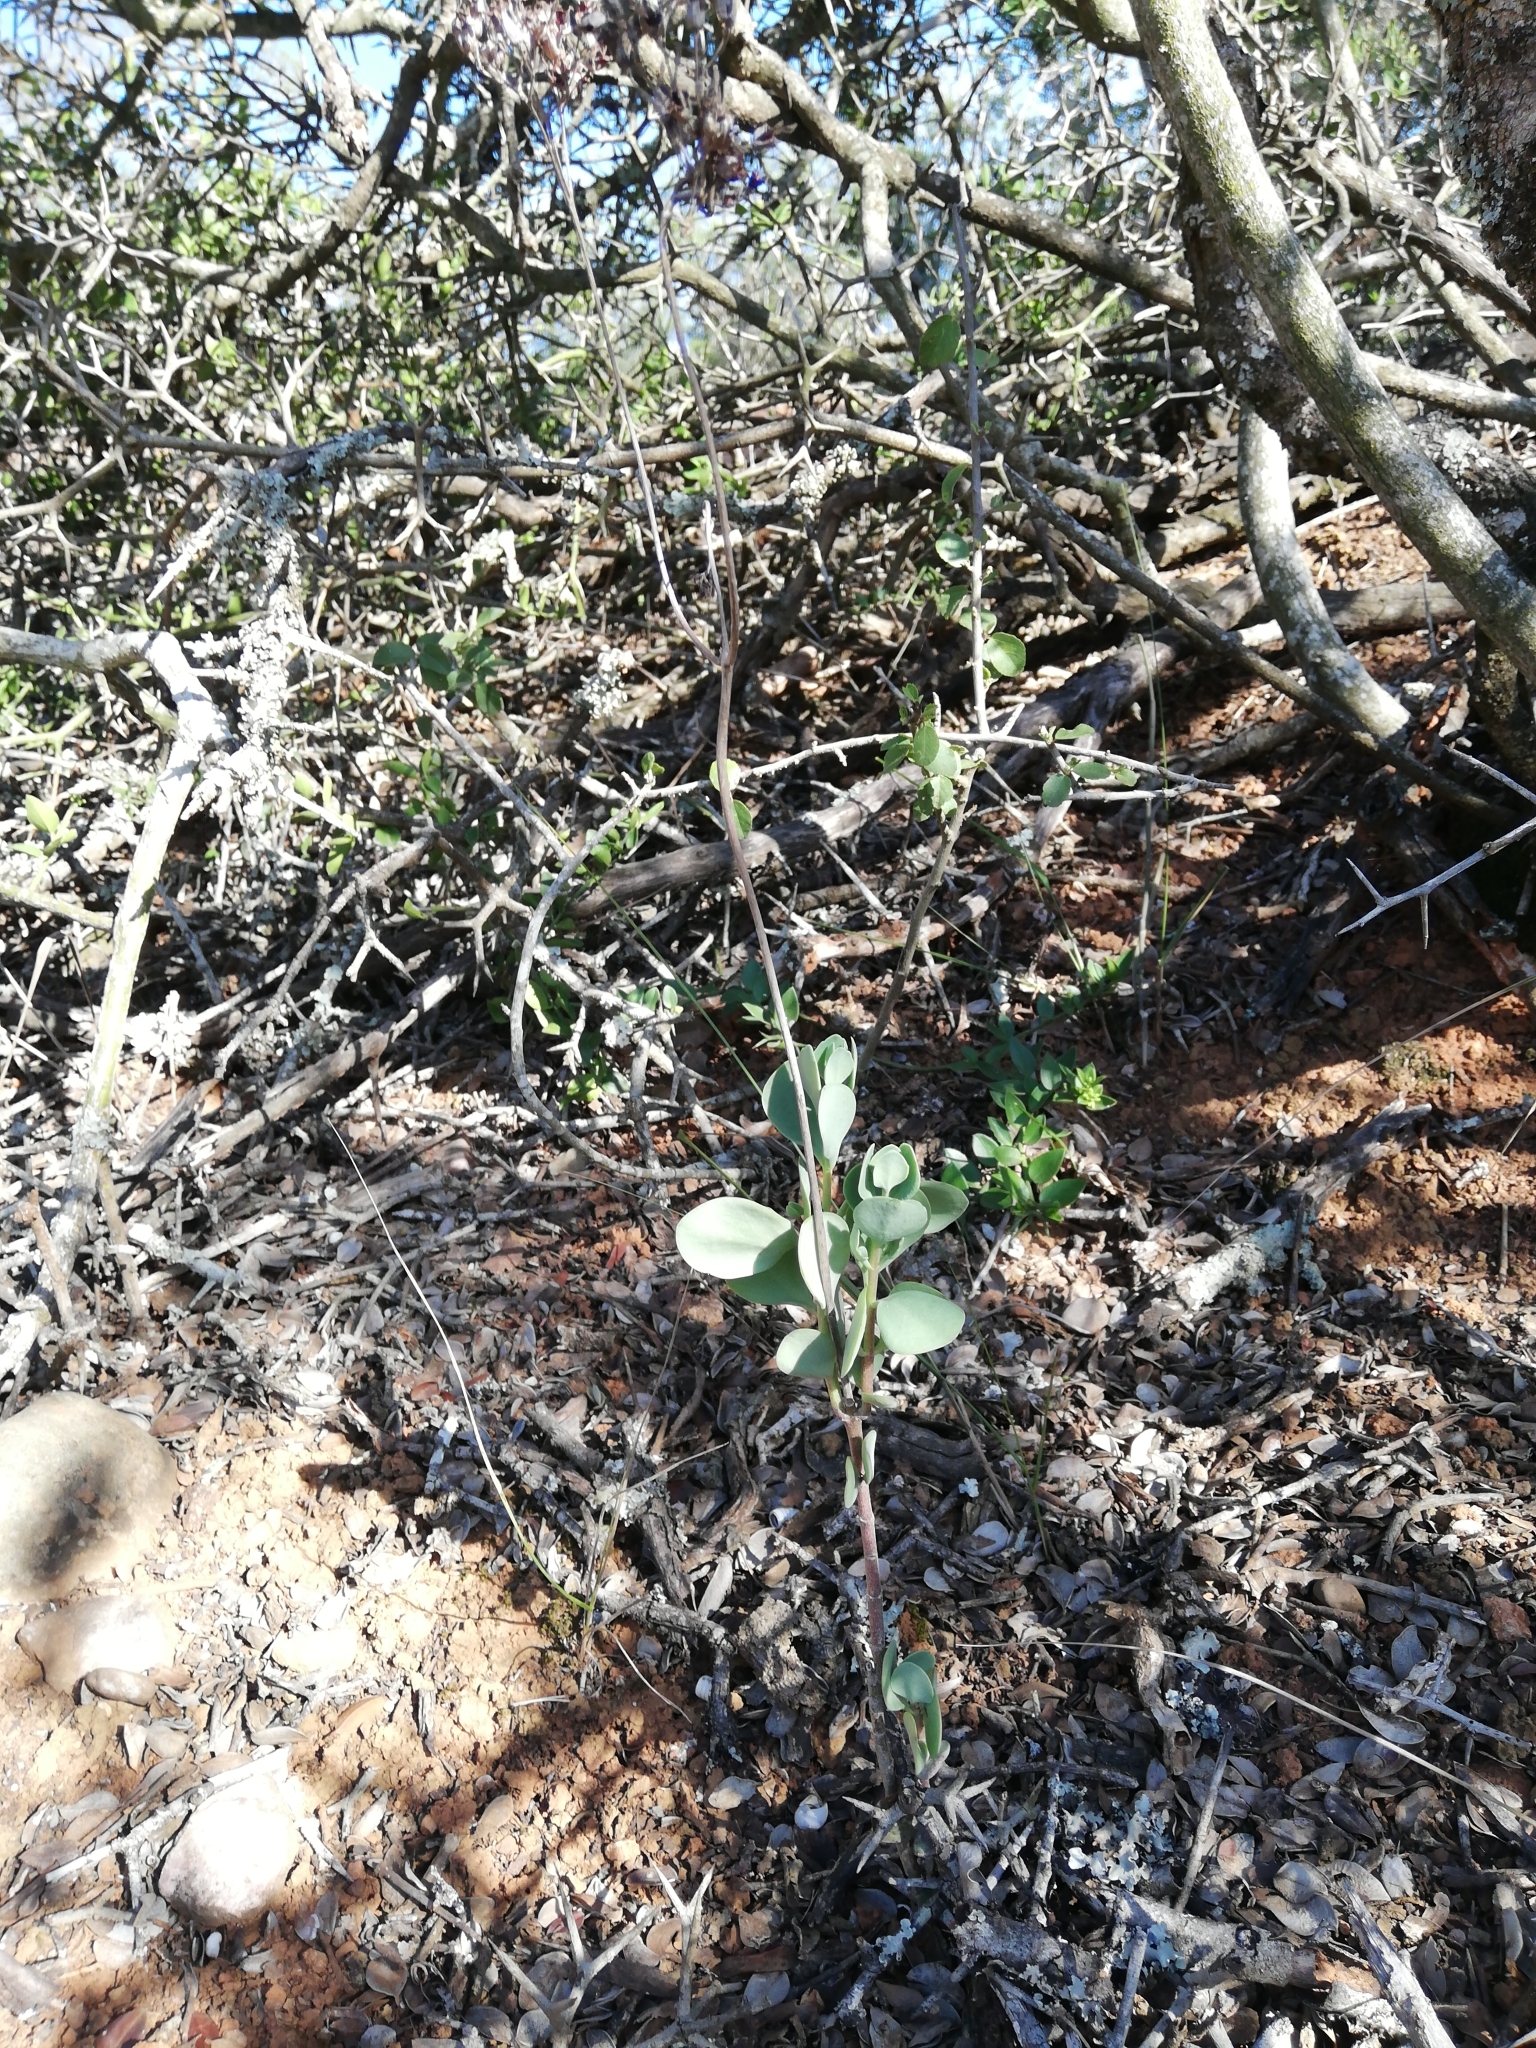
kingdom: Plantae
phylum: Tracheophyta
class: Magnoliopsida
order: Saxifragales
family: Crassulaceae
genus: Kalanchoe
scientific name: Kalanchoe rotundifolia
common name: Common kalanchoe
